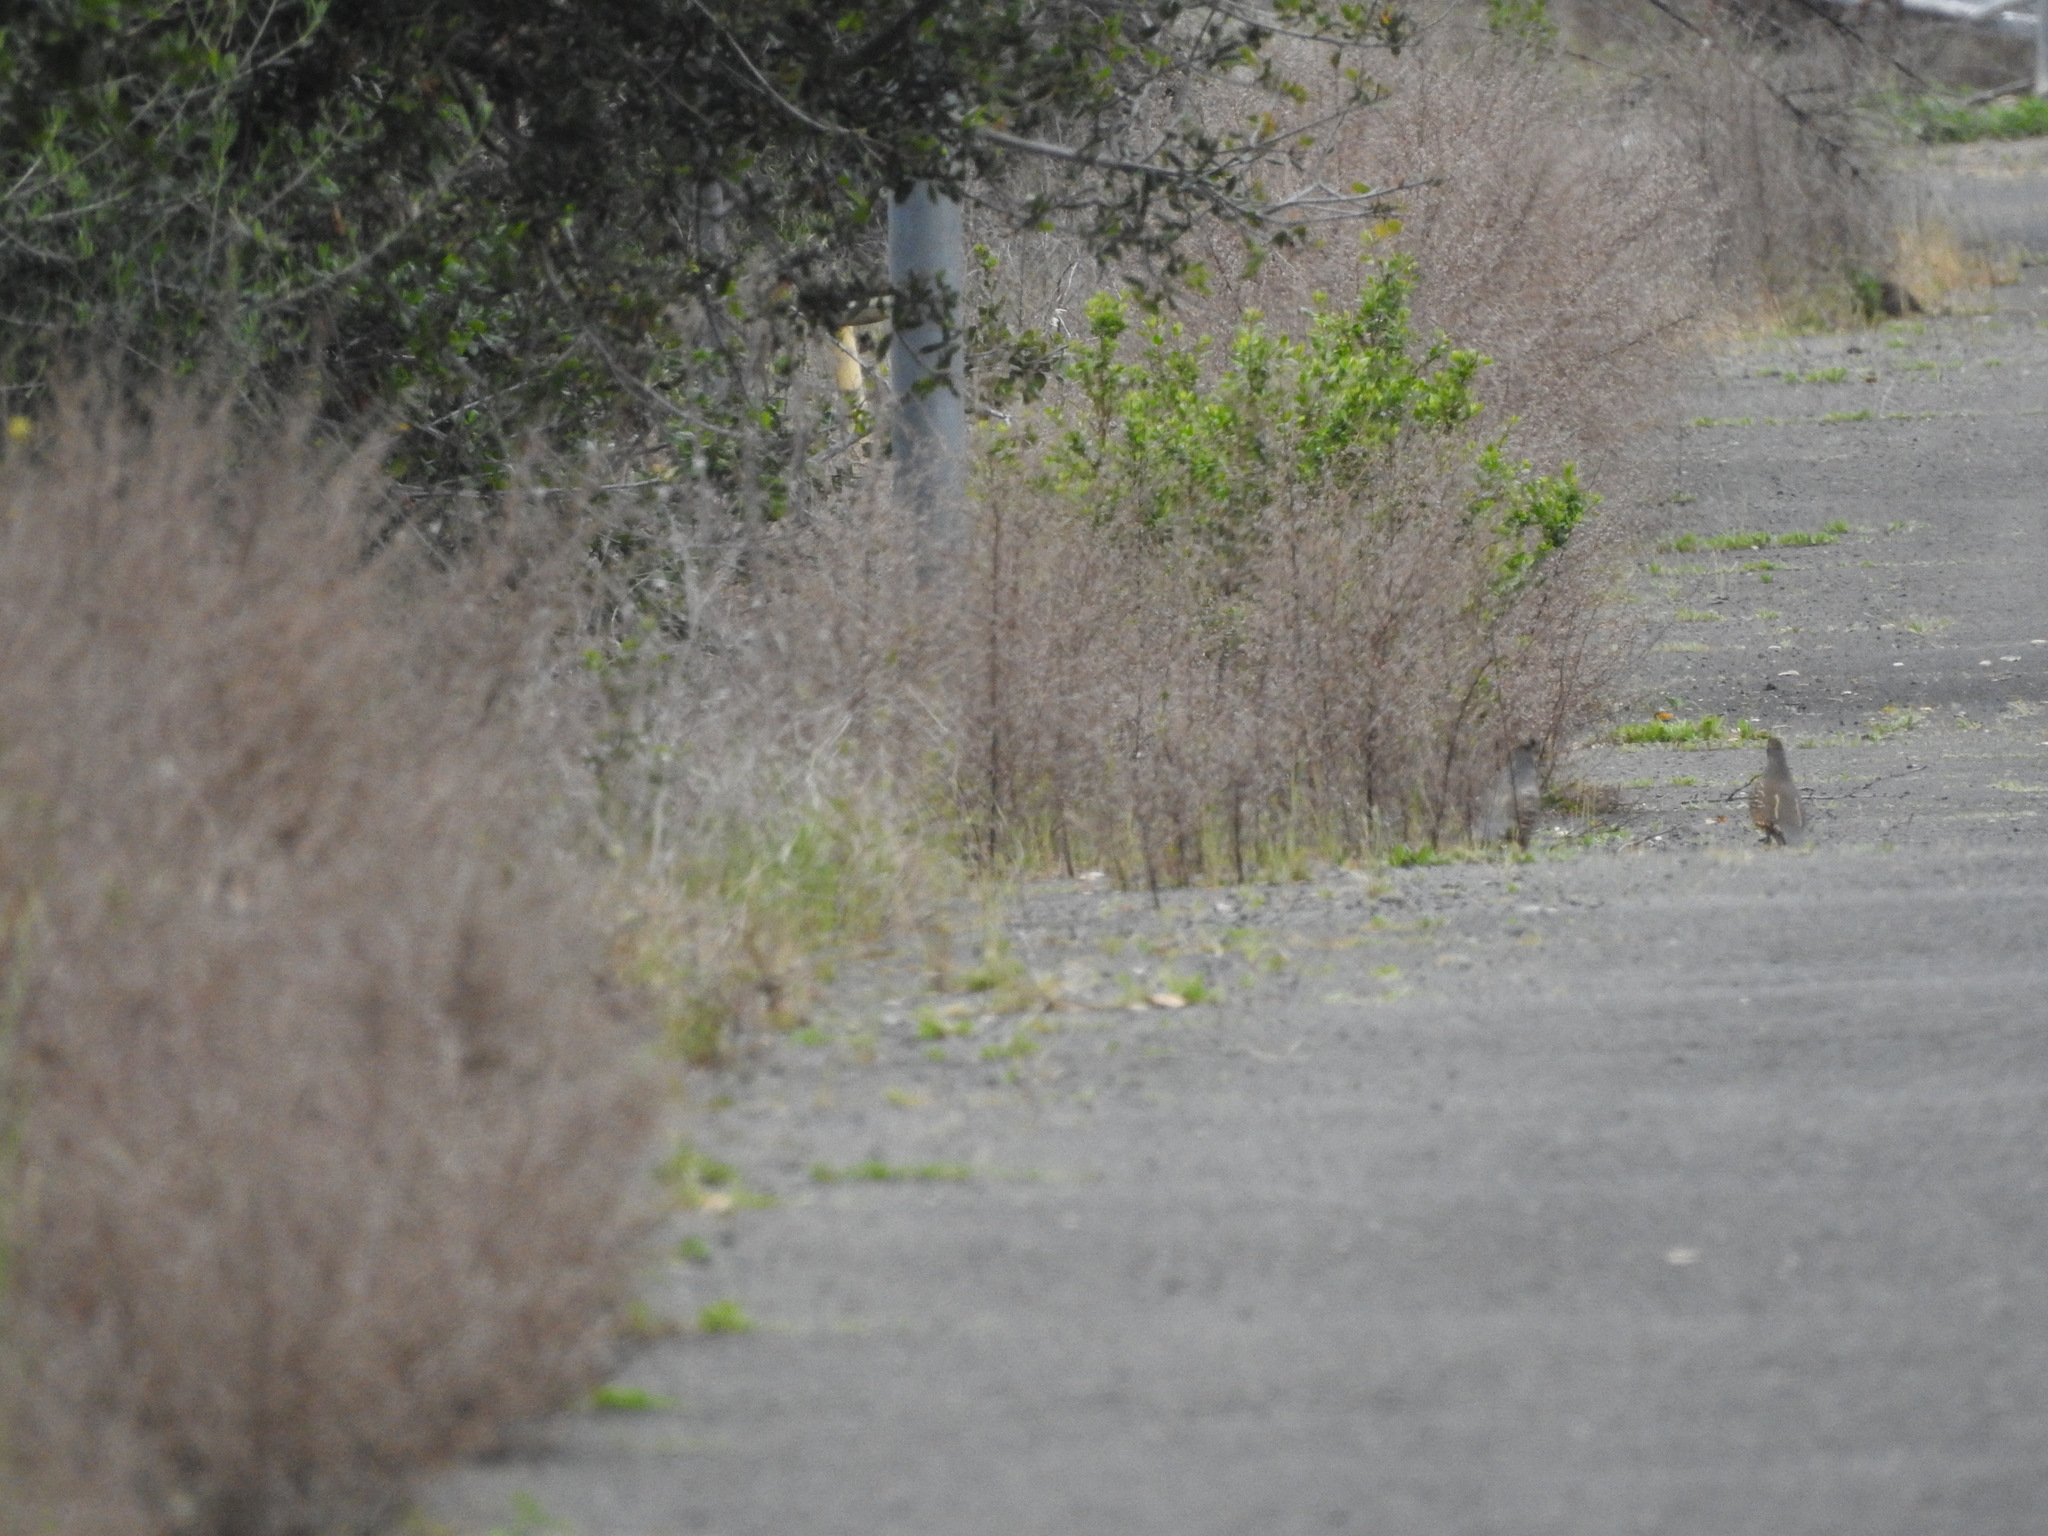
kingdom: Animalia
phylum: Chordata
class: Aves
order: Galliformes
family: Odontophoridae
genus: Callipepla
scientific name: Callipepla californica
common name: California quail
